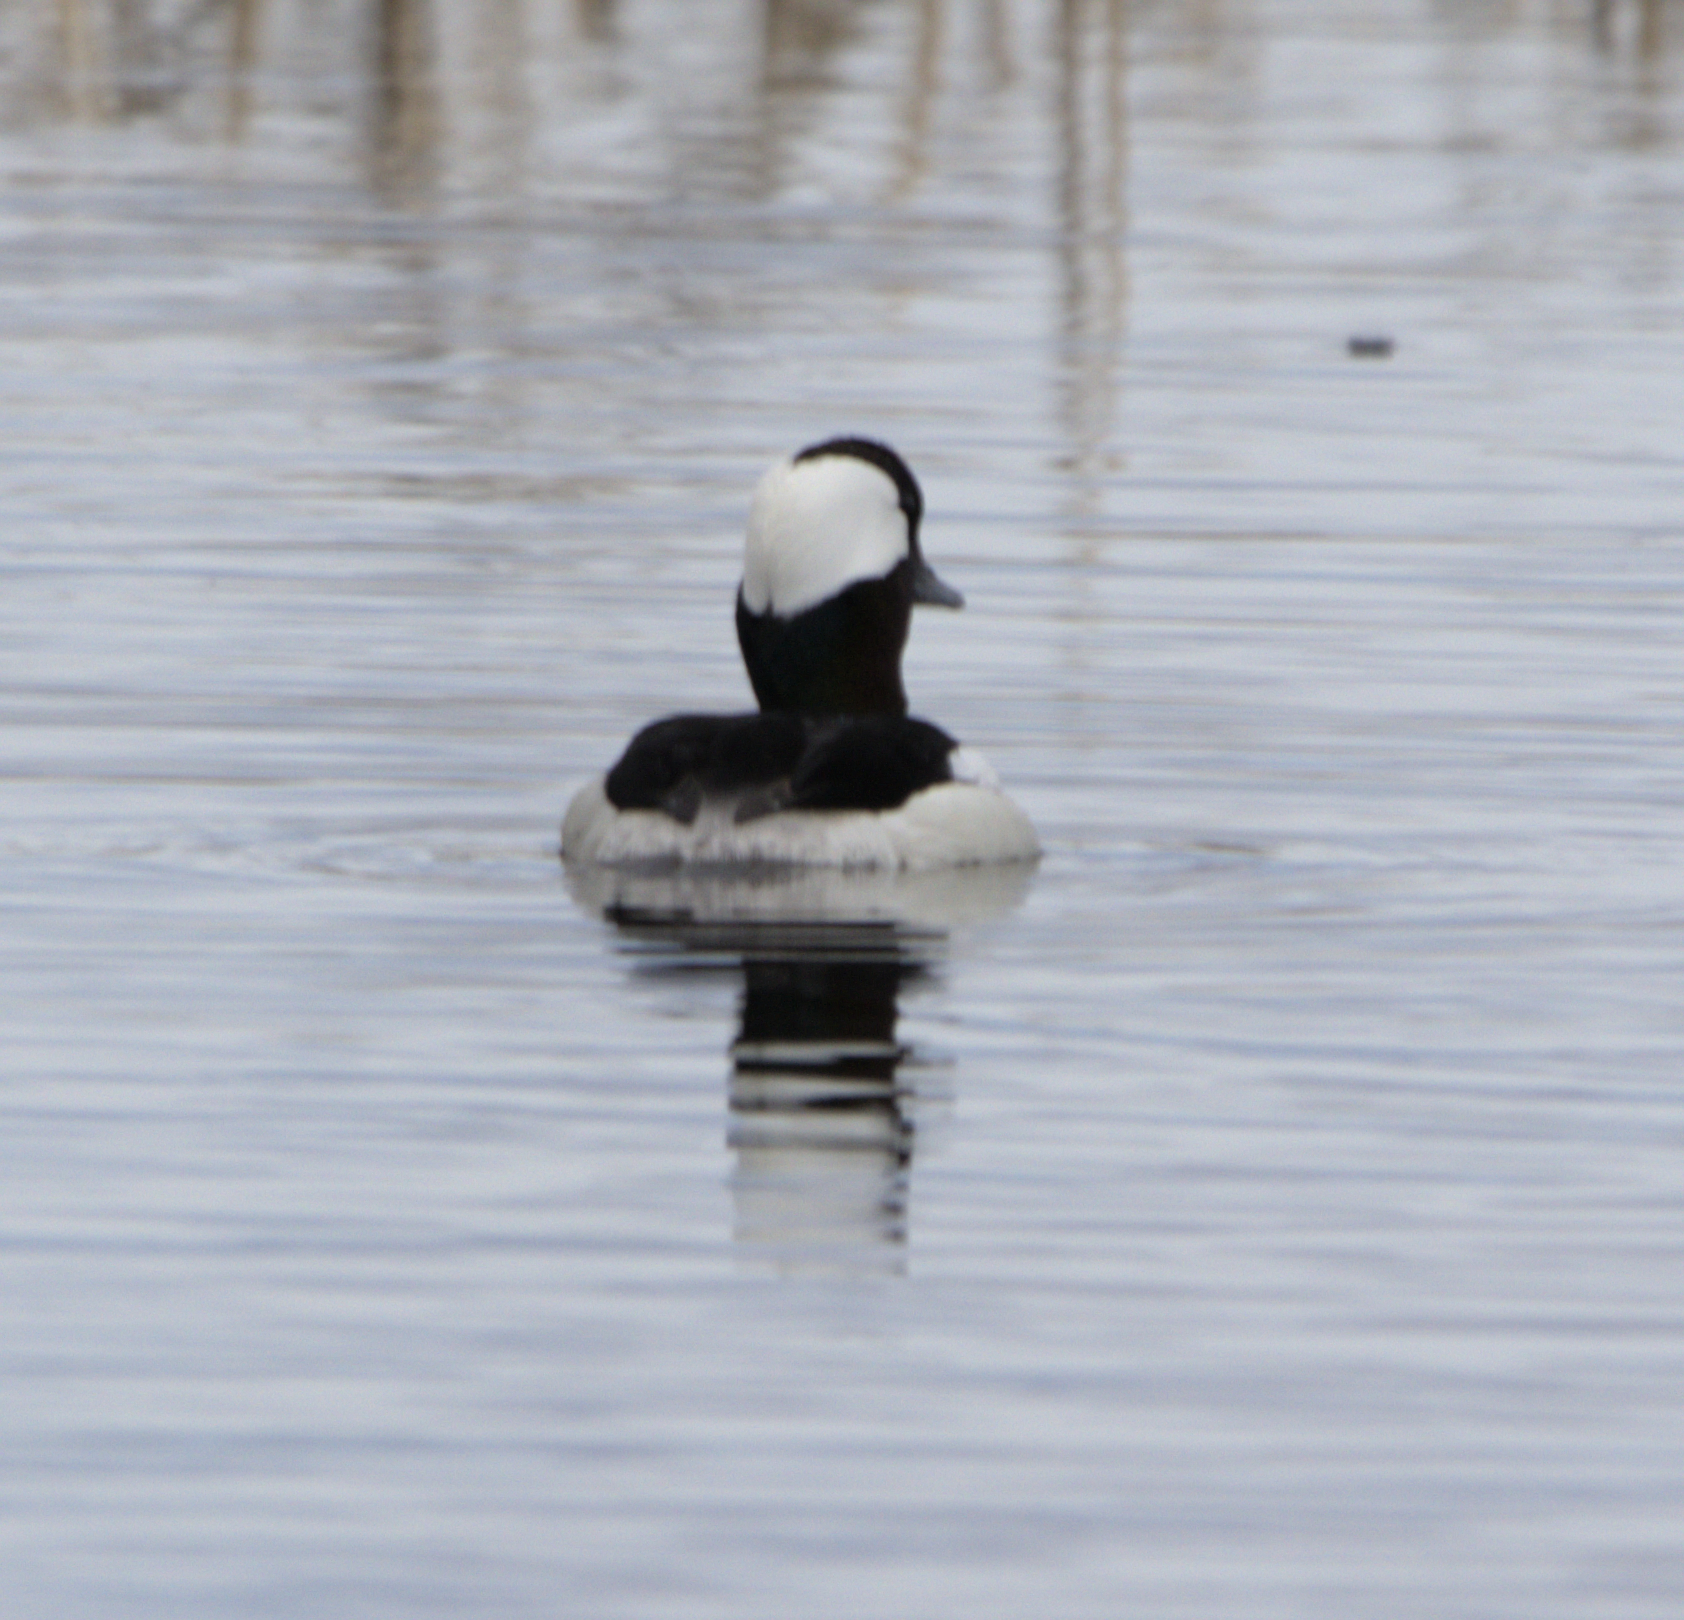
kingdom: Animalia
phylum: Chordata
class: Aves
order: Anseriformes
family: Anatidae
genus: Bucephala
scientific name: Bucephala albeola
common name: Bufflehead
